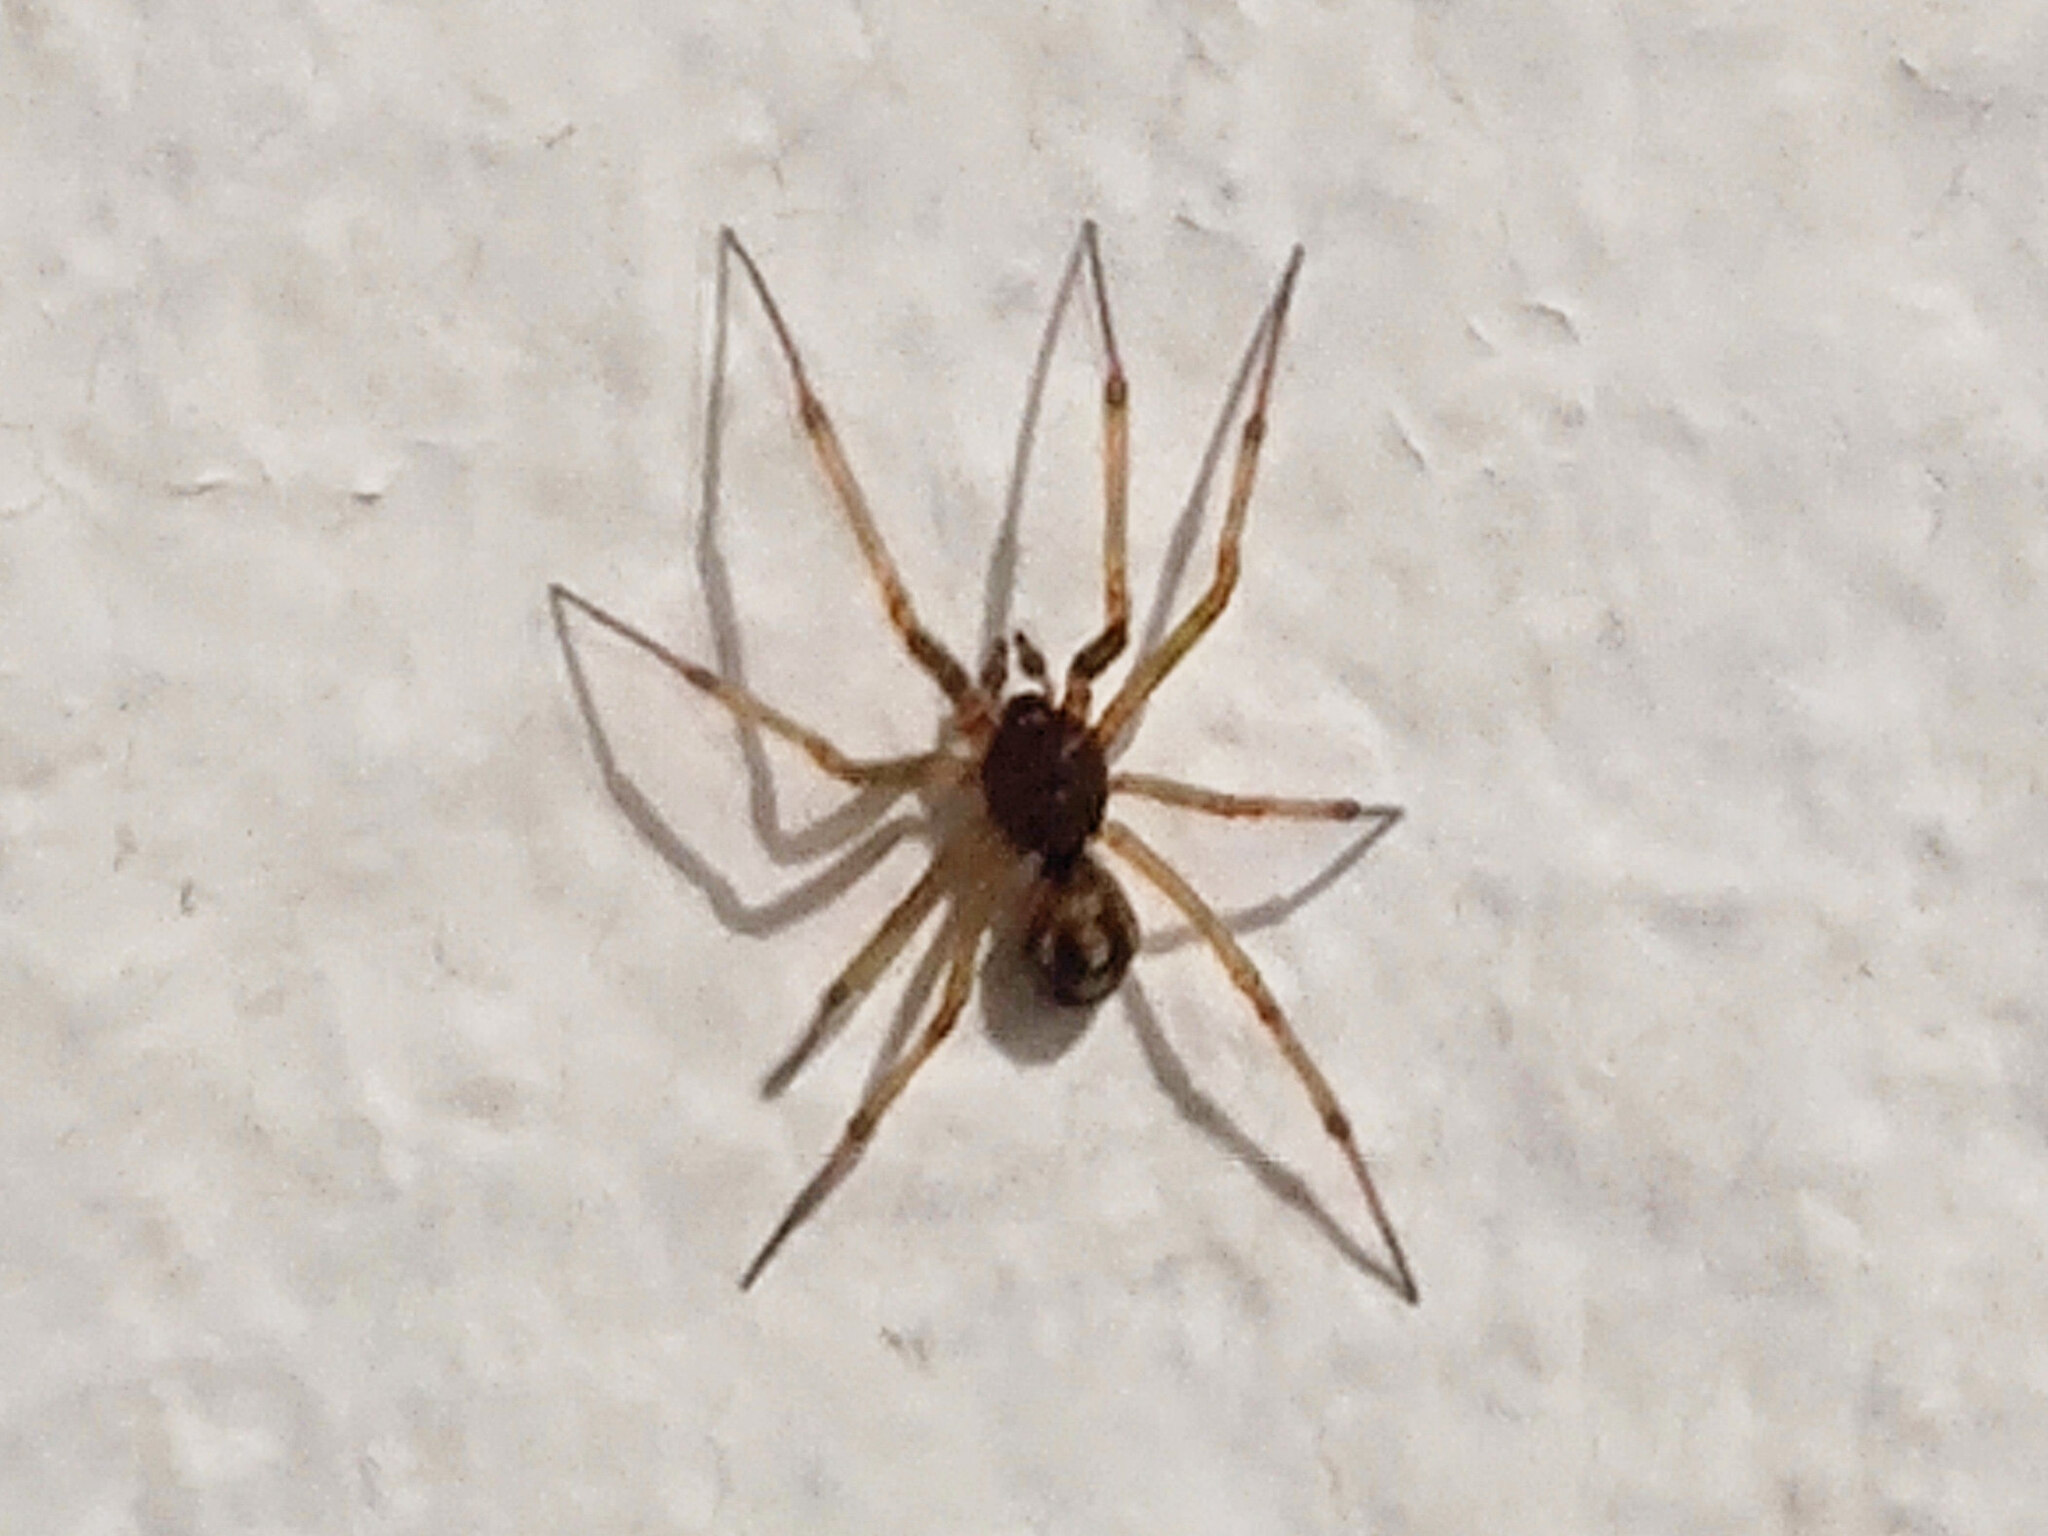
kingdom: Animalia
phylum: Arthropoda
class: Arachnida
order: Araneae
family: Theridiidae
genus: Steatoda
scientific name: Steatoda triangulosa
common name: Triangulate bud spider
